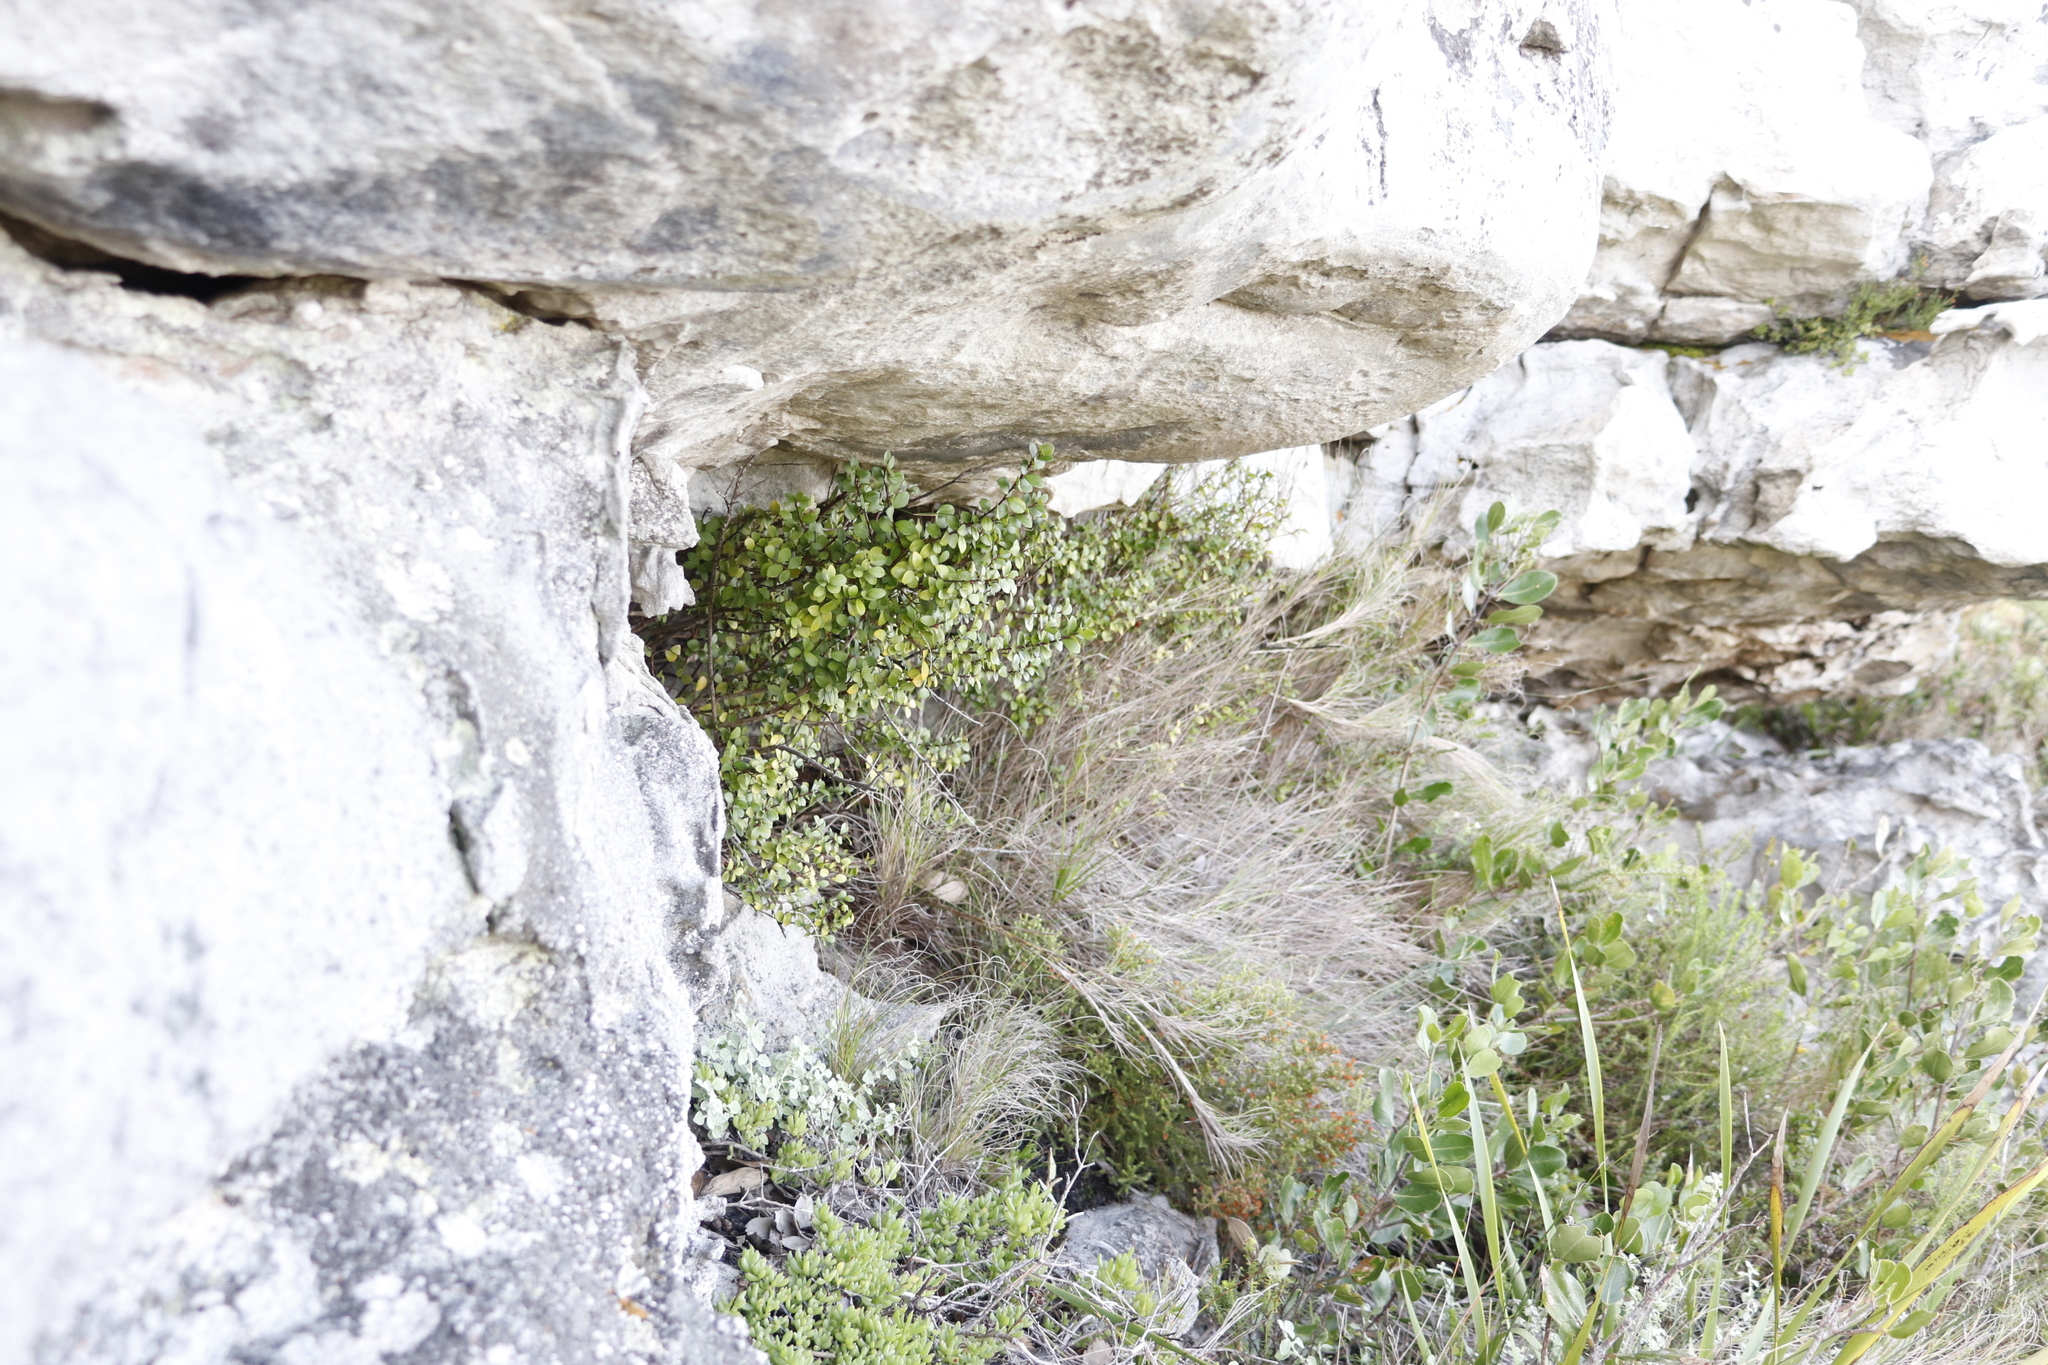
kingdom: Plantae
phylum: Tracheophyta
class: Magnoliopsida
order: Ericales
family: Primulaceae
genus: Myrsine
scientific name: Myrsine africana
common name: African-boxwood
